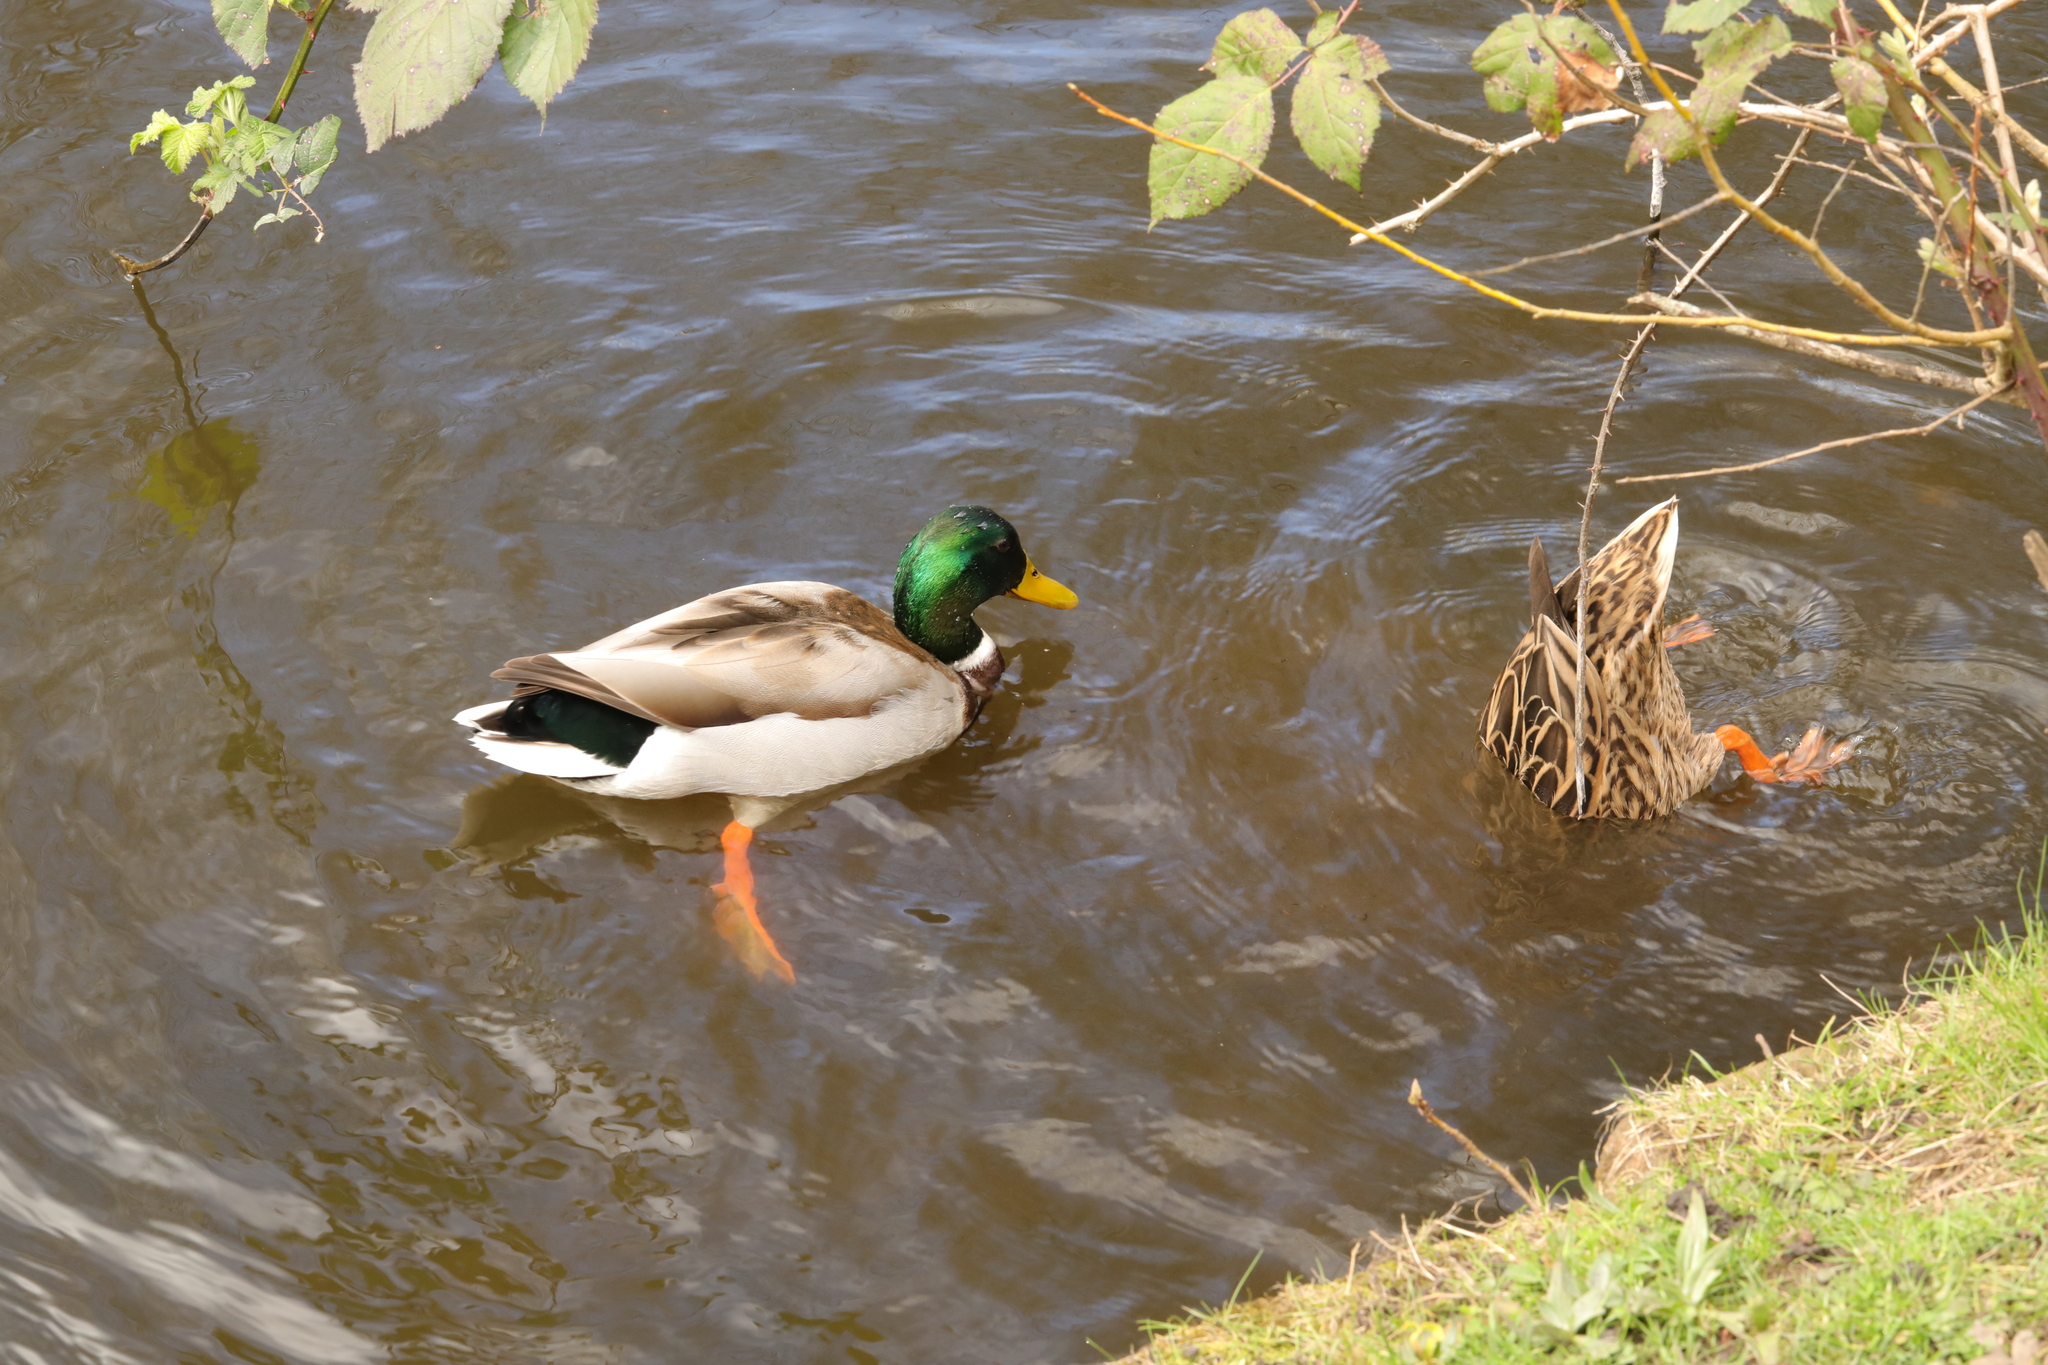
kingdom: Animalia
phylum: Chordata
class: Aves
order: Anseriformes
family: Anatidae
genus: Anas
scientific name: Anas platyrhynchos
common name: Mallard
